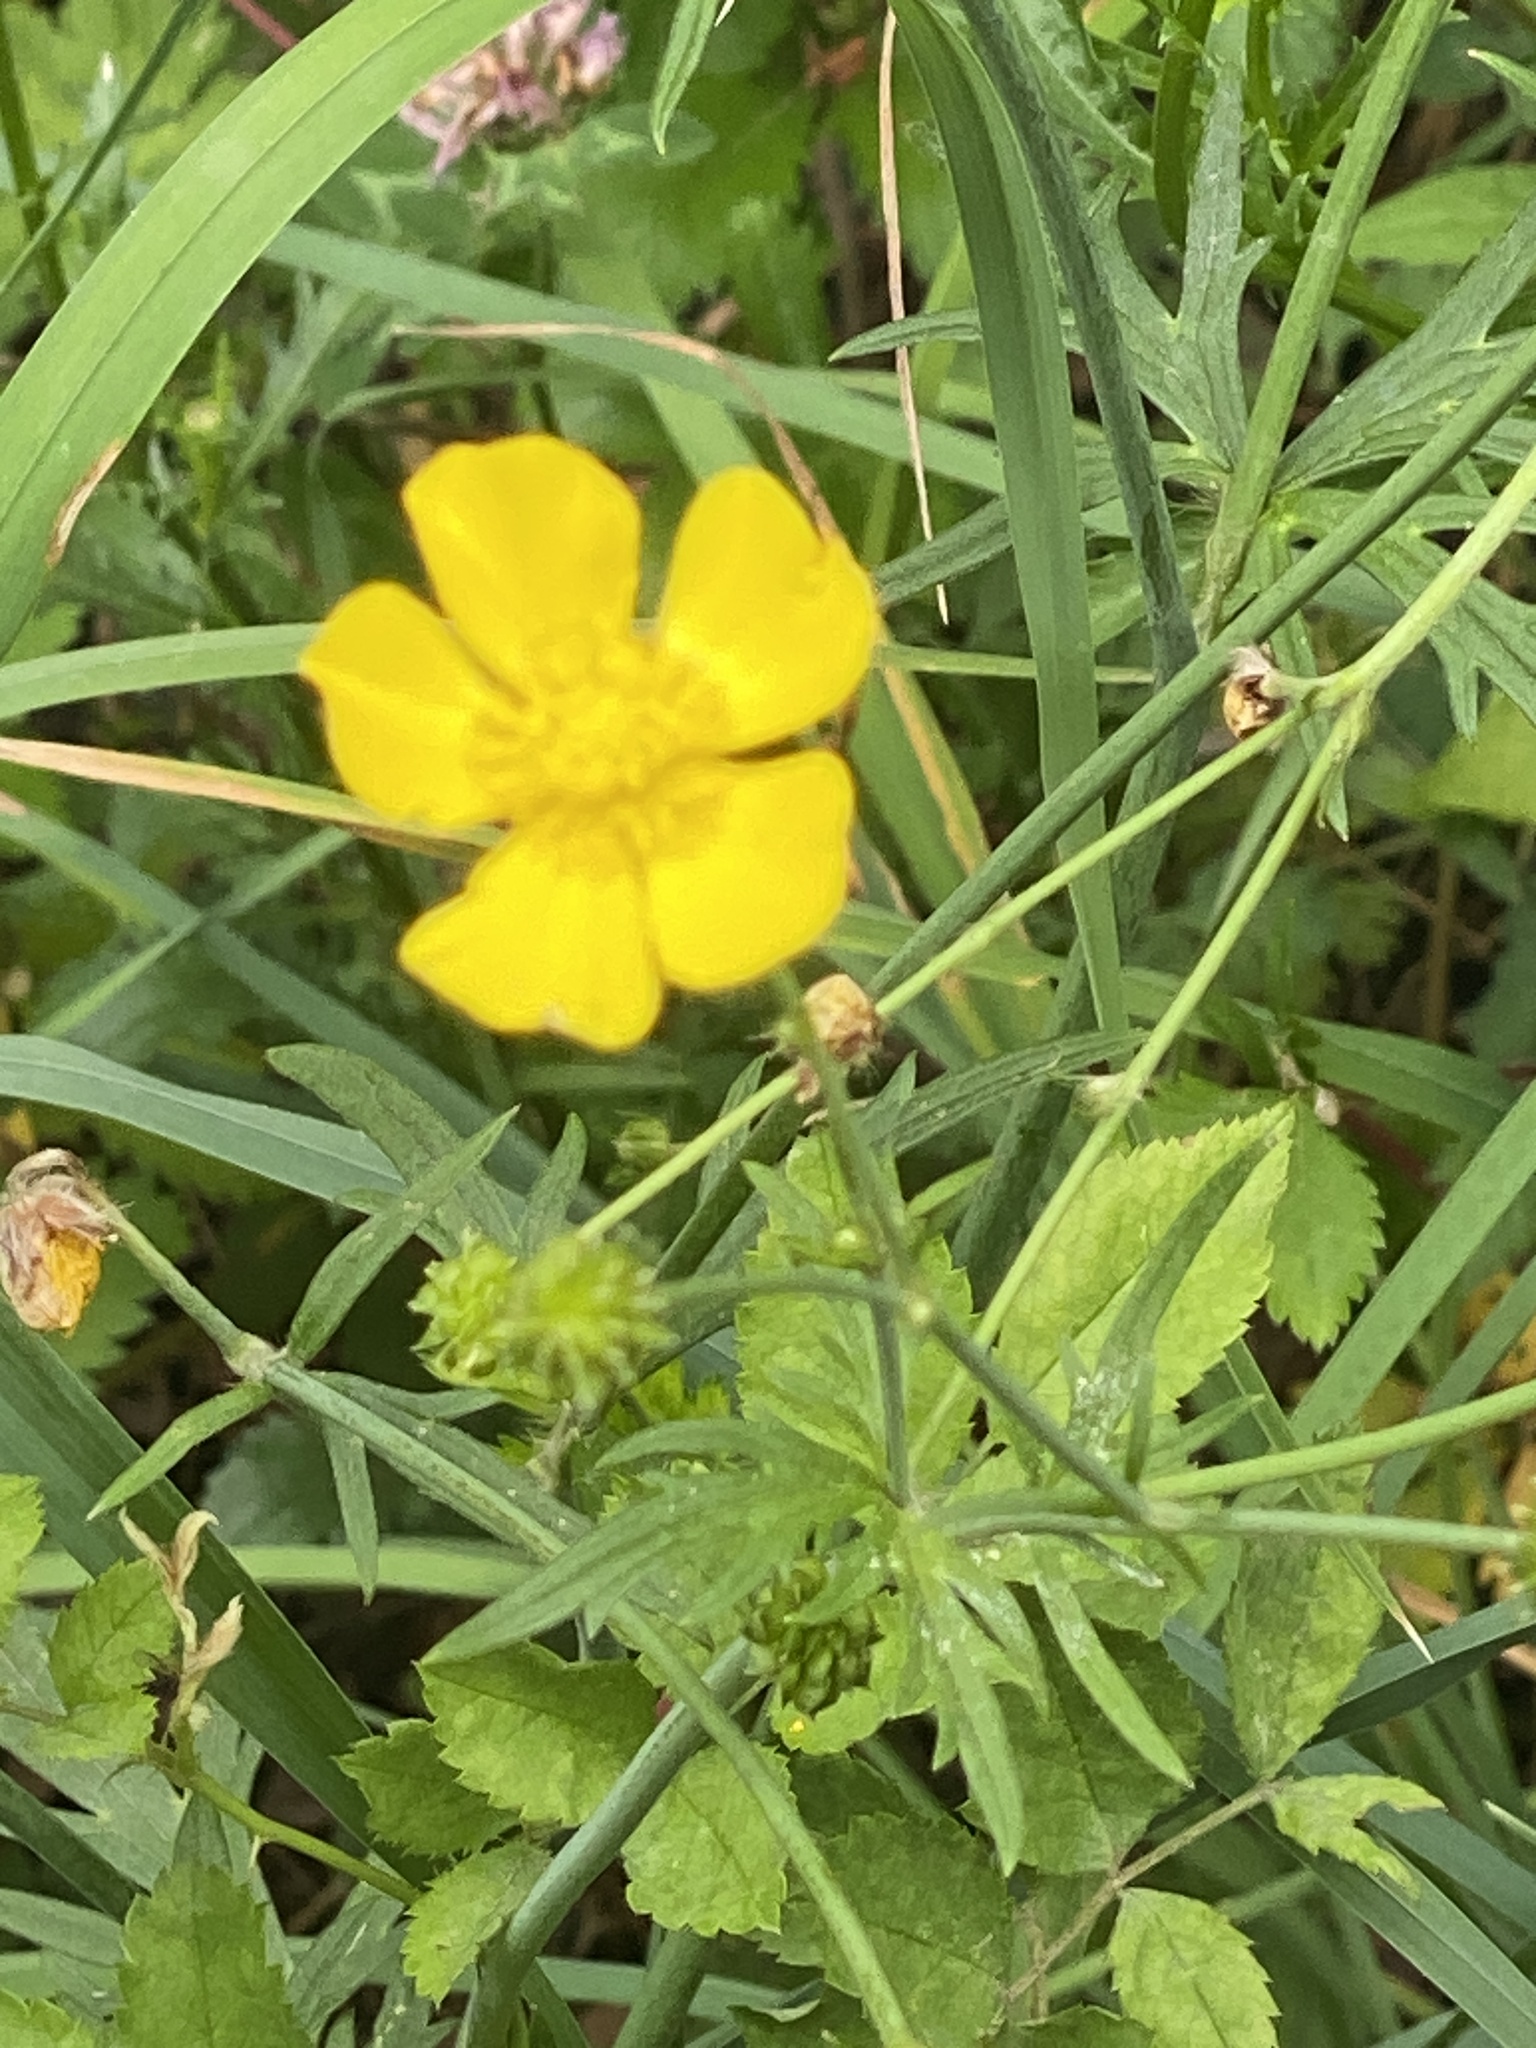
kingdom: Plantae
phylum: Tracheophyta
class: Magnoliopsida
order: Ranunculales
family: Ranunculaceae
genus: Ranunculus
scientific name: Ranunculus acris
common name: Meadow buttercup
